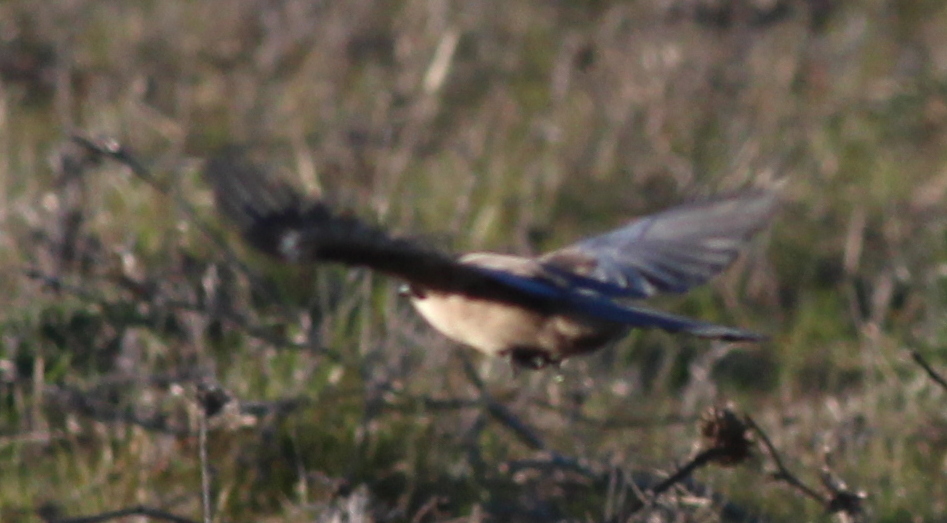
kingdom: Animalia
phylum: Chordata
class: Aves
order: Passeriformes
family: Corvidae
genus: Garrulus
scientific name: Garrulus glandarius
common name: Eurasian jay
